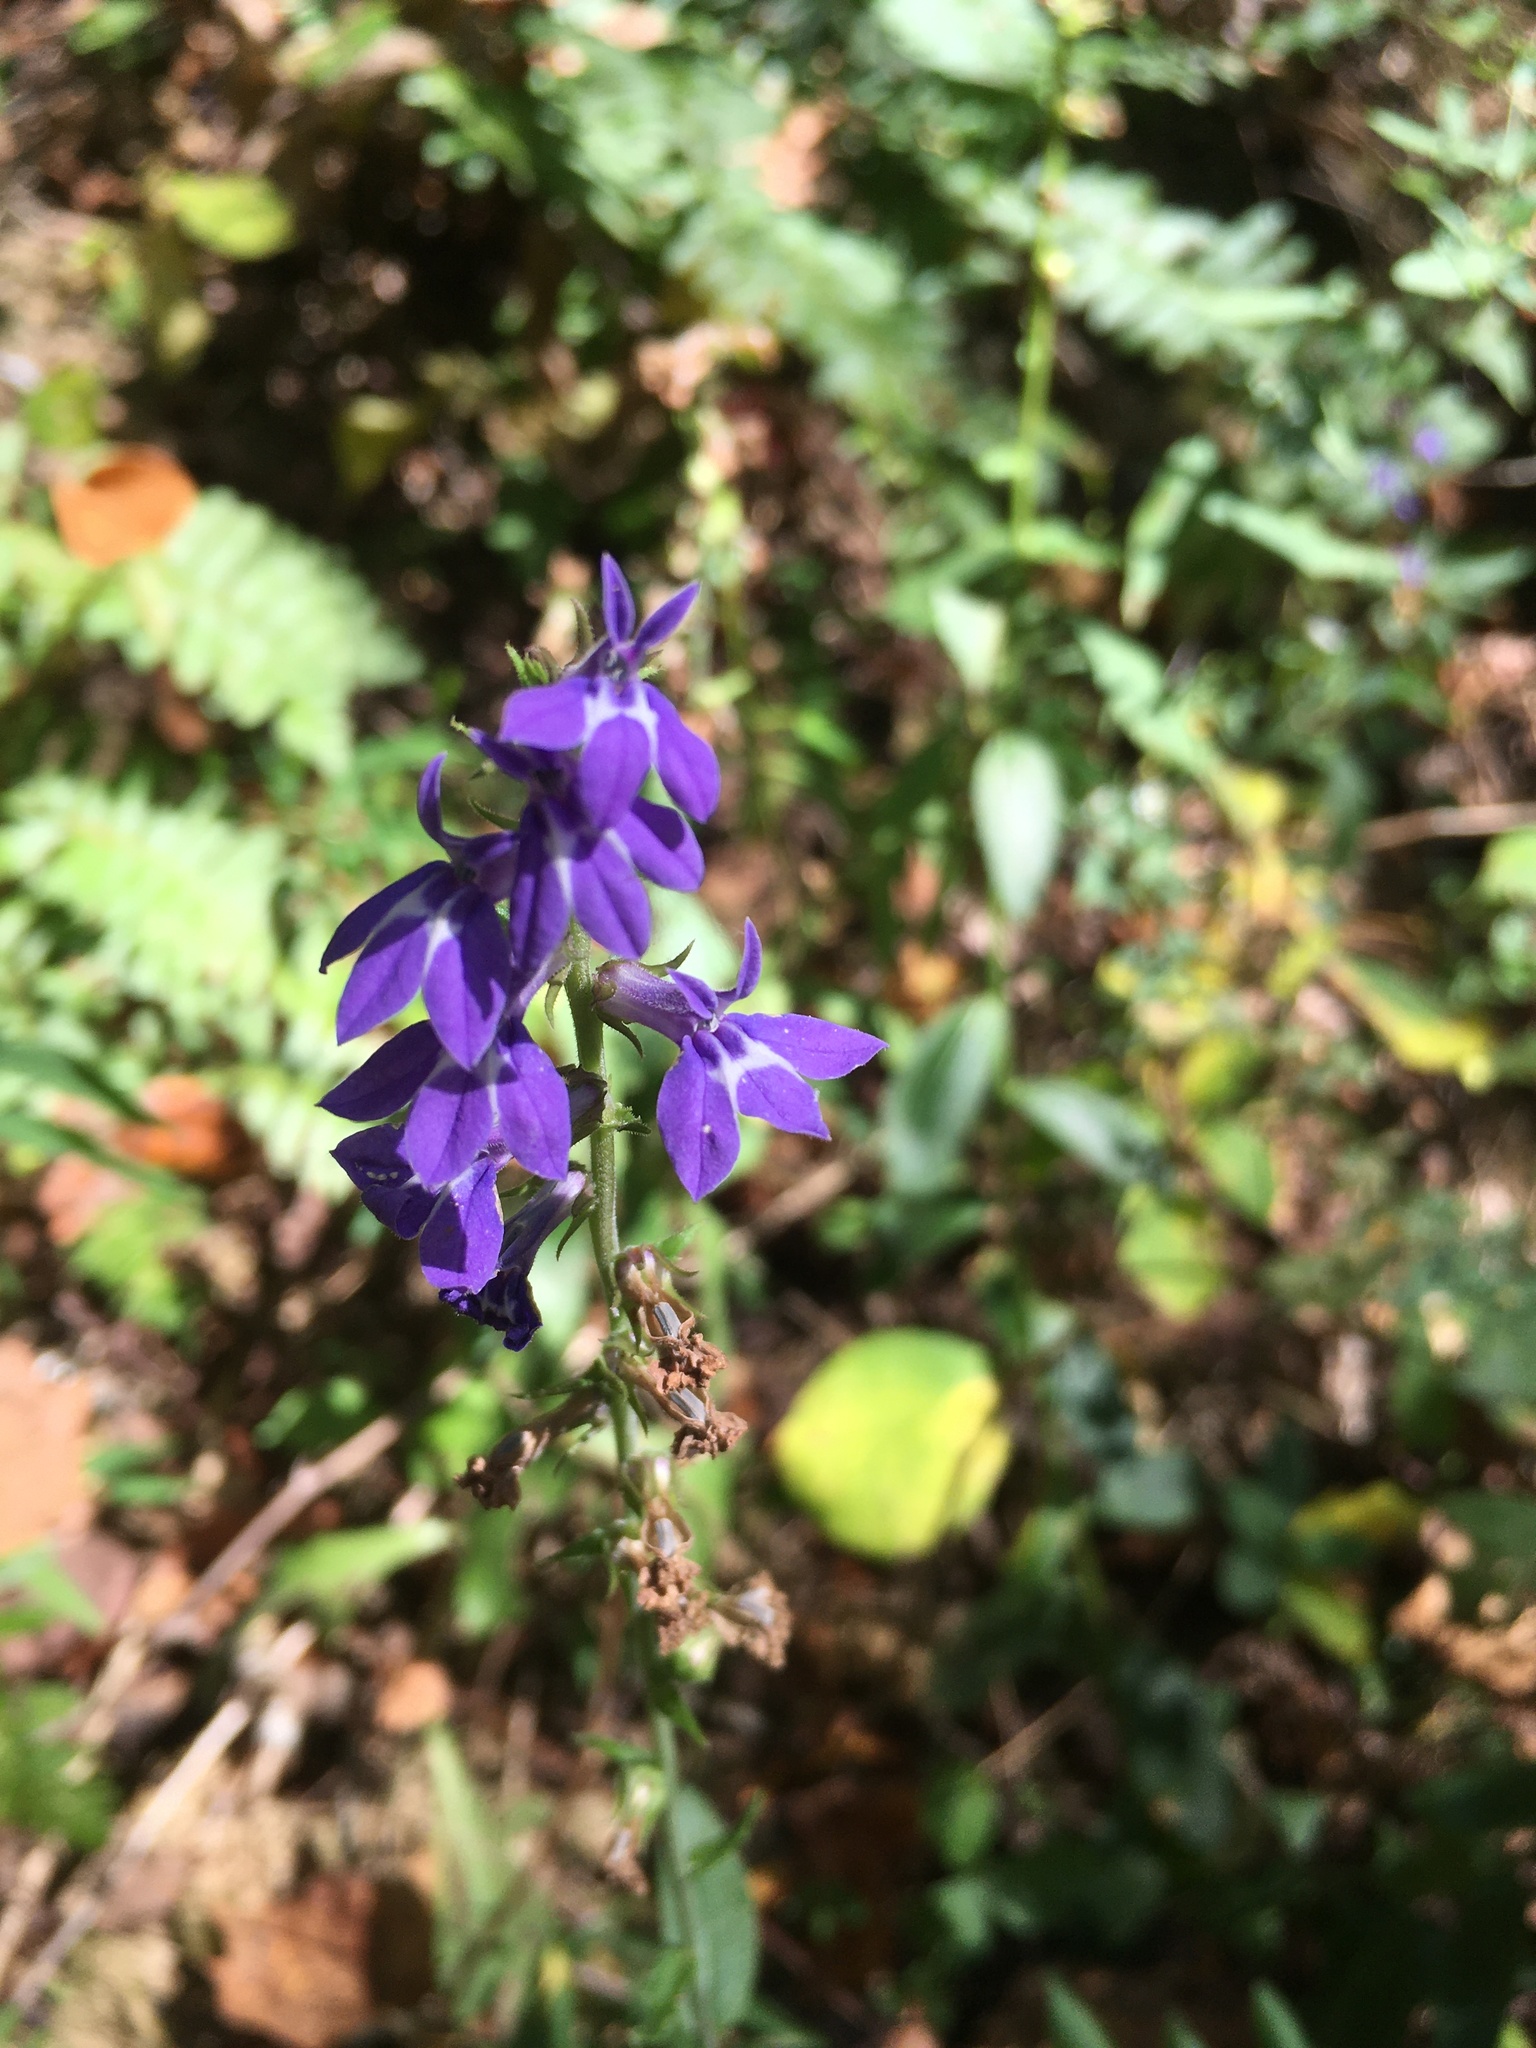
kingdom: Plantae
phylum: Tracheophyta
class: Magnoliopsida
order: Asterales
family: Campanulaceae
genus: Lobelia
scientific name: Lobelia puberula
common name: Purple dewdrop
